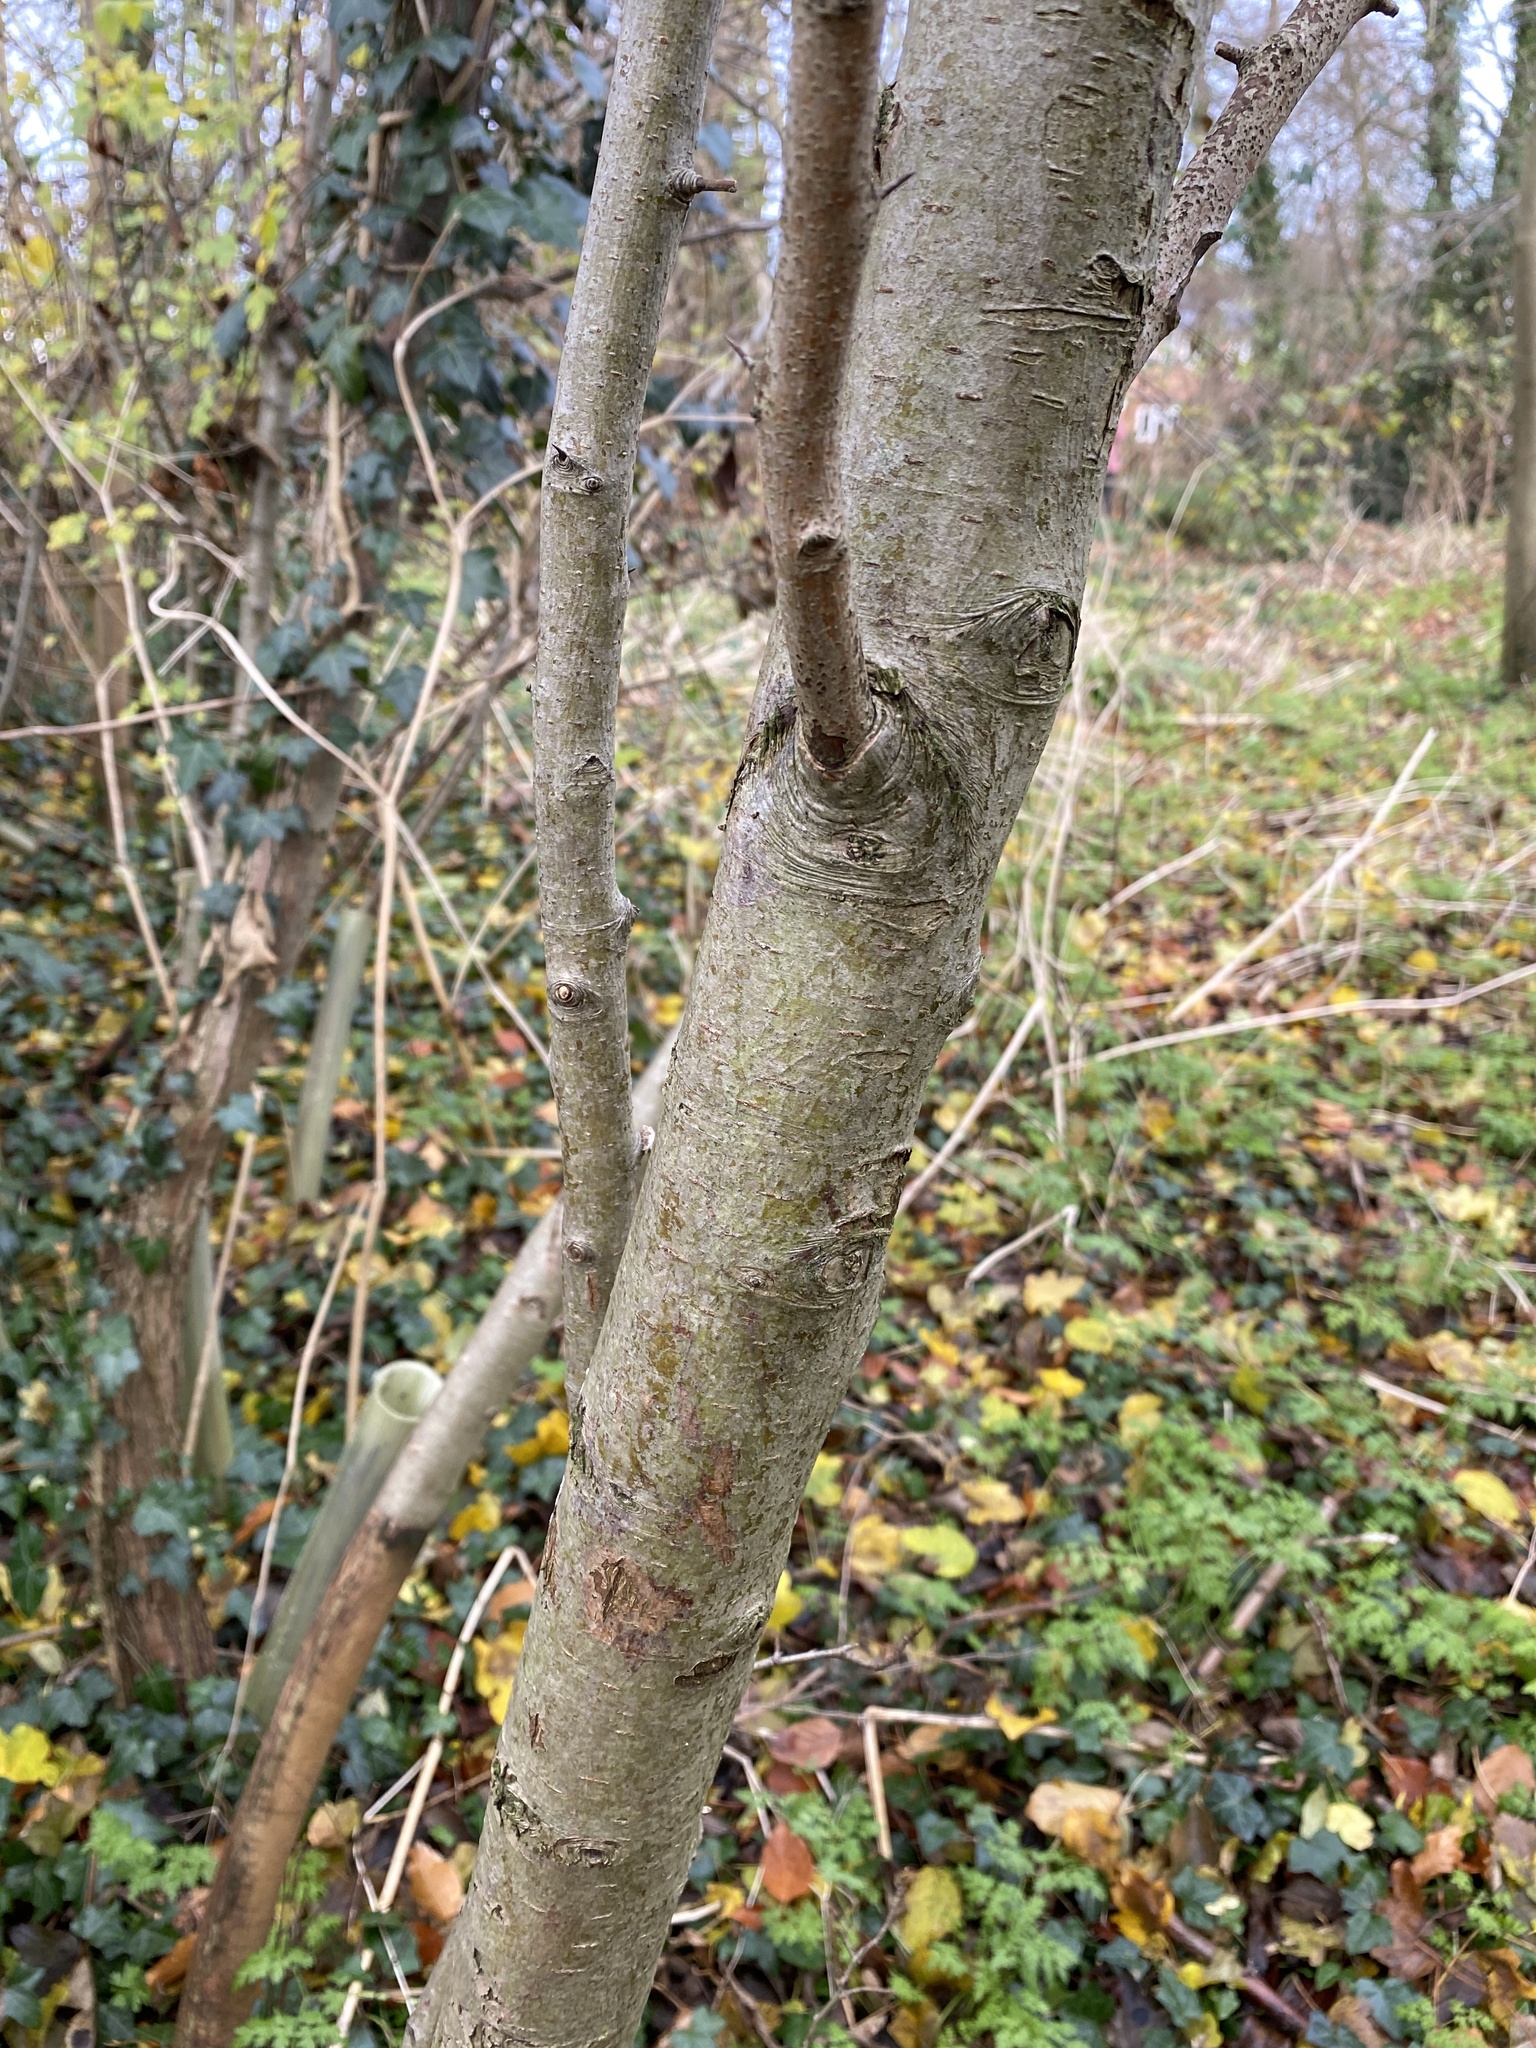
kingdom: Plantae
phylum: Tracheophyta
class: Magnoliopsida
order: Rosales
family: Rosaceae
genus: Crataegus
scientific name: Crataegus monogyna
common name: Hawthorn
